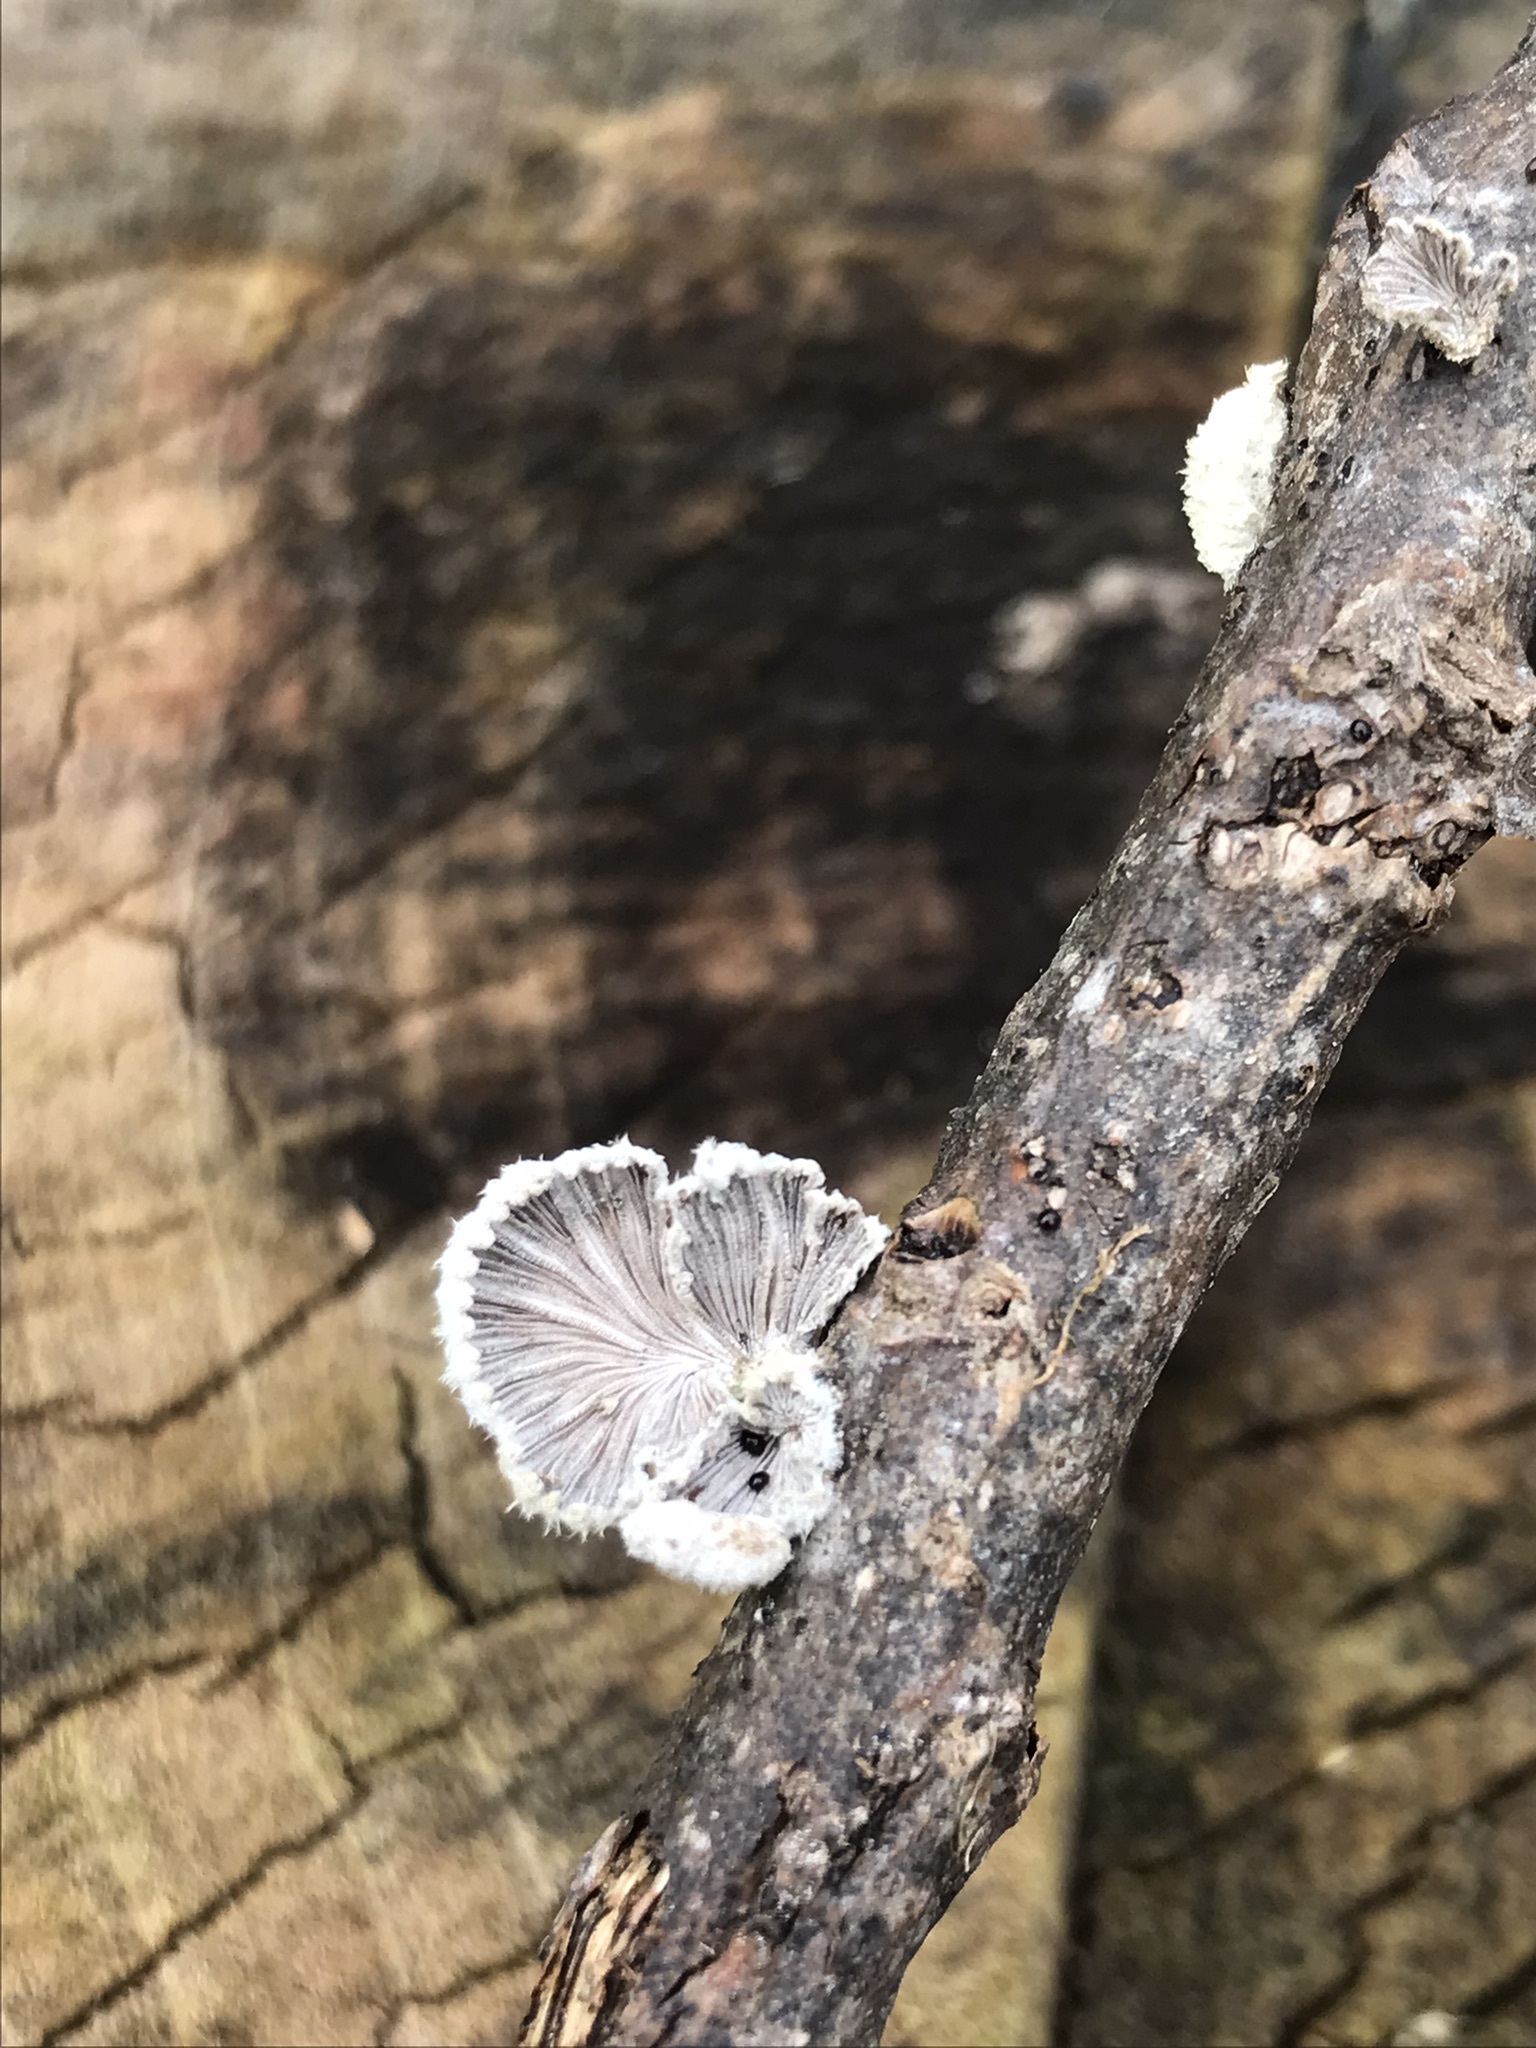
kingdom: Fungi
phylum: Basidiomycota
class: Agaricomycetes
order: Agaricales
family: Schizophyllaceae
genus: Schizophyllum
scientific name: Schizophyllum commune
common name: Common porecrust
